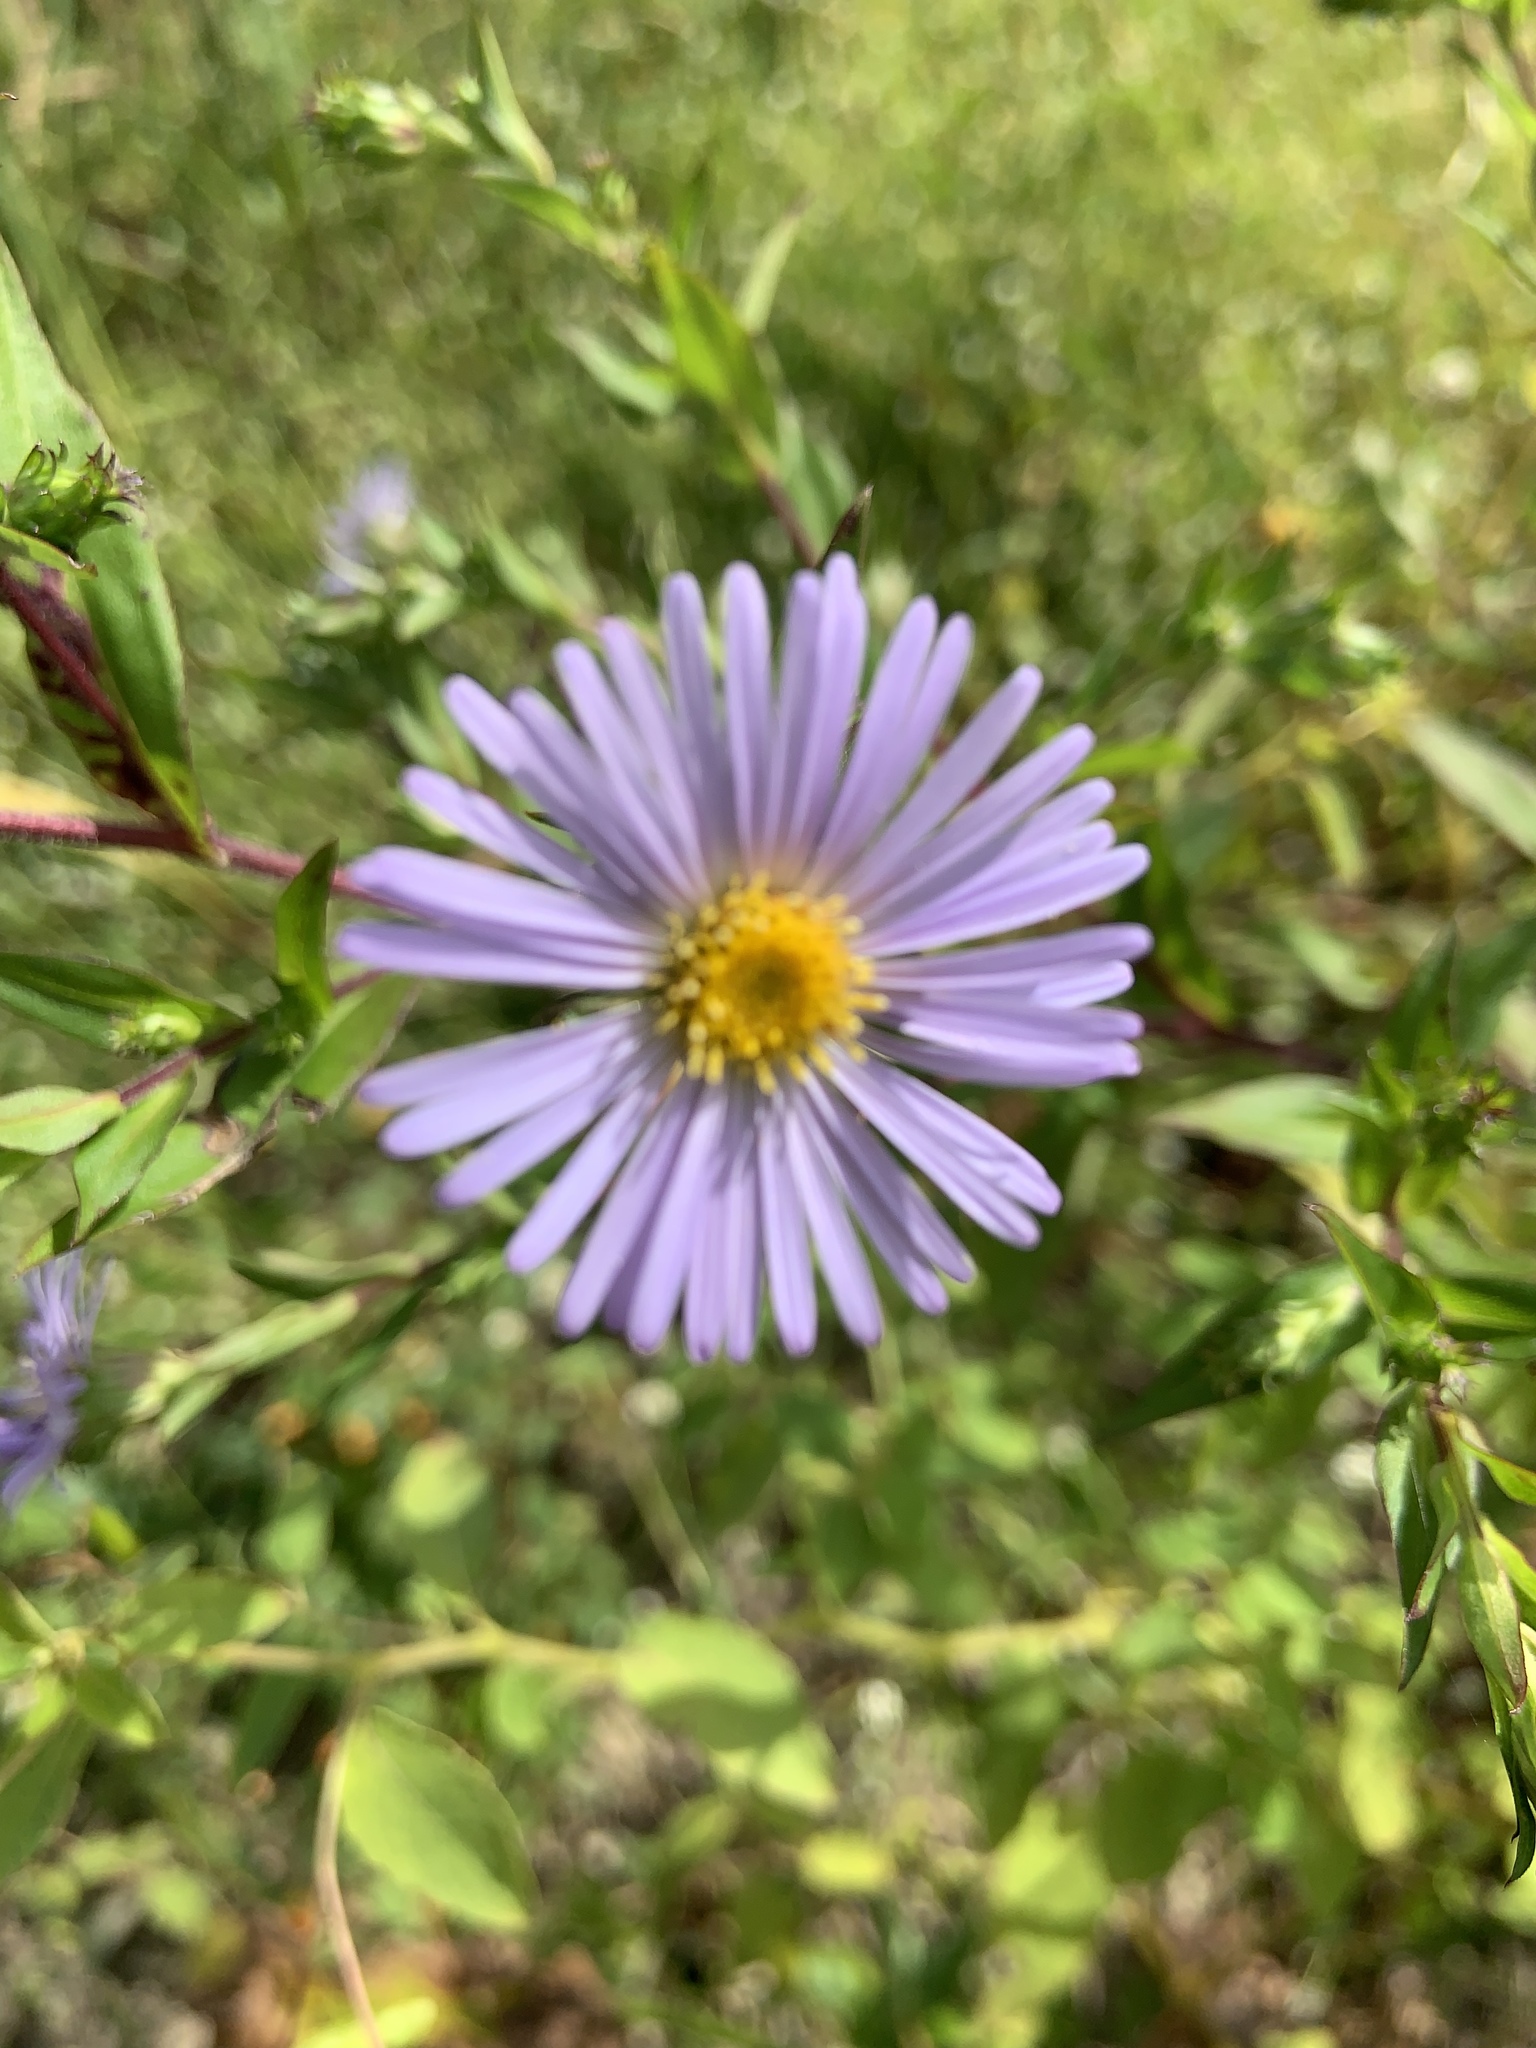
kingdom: Plantae
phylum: Tracheophyta
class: Magnoliopsida
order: Asterales
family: Asteraceae
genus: Symphyotrichum
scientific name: Symphyotrichum puniceum
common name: Bog aster
